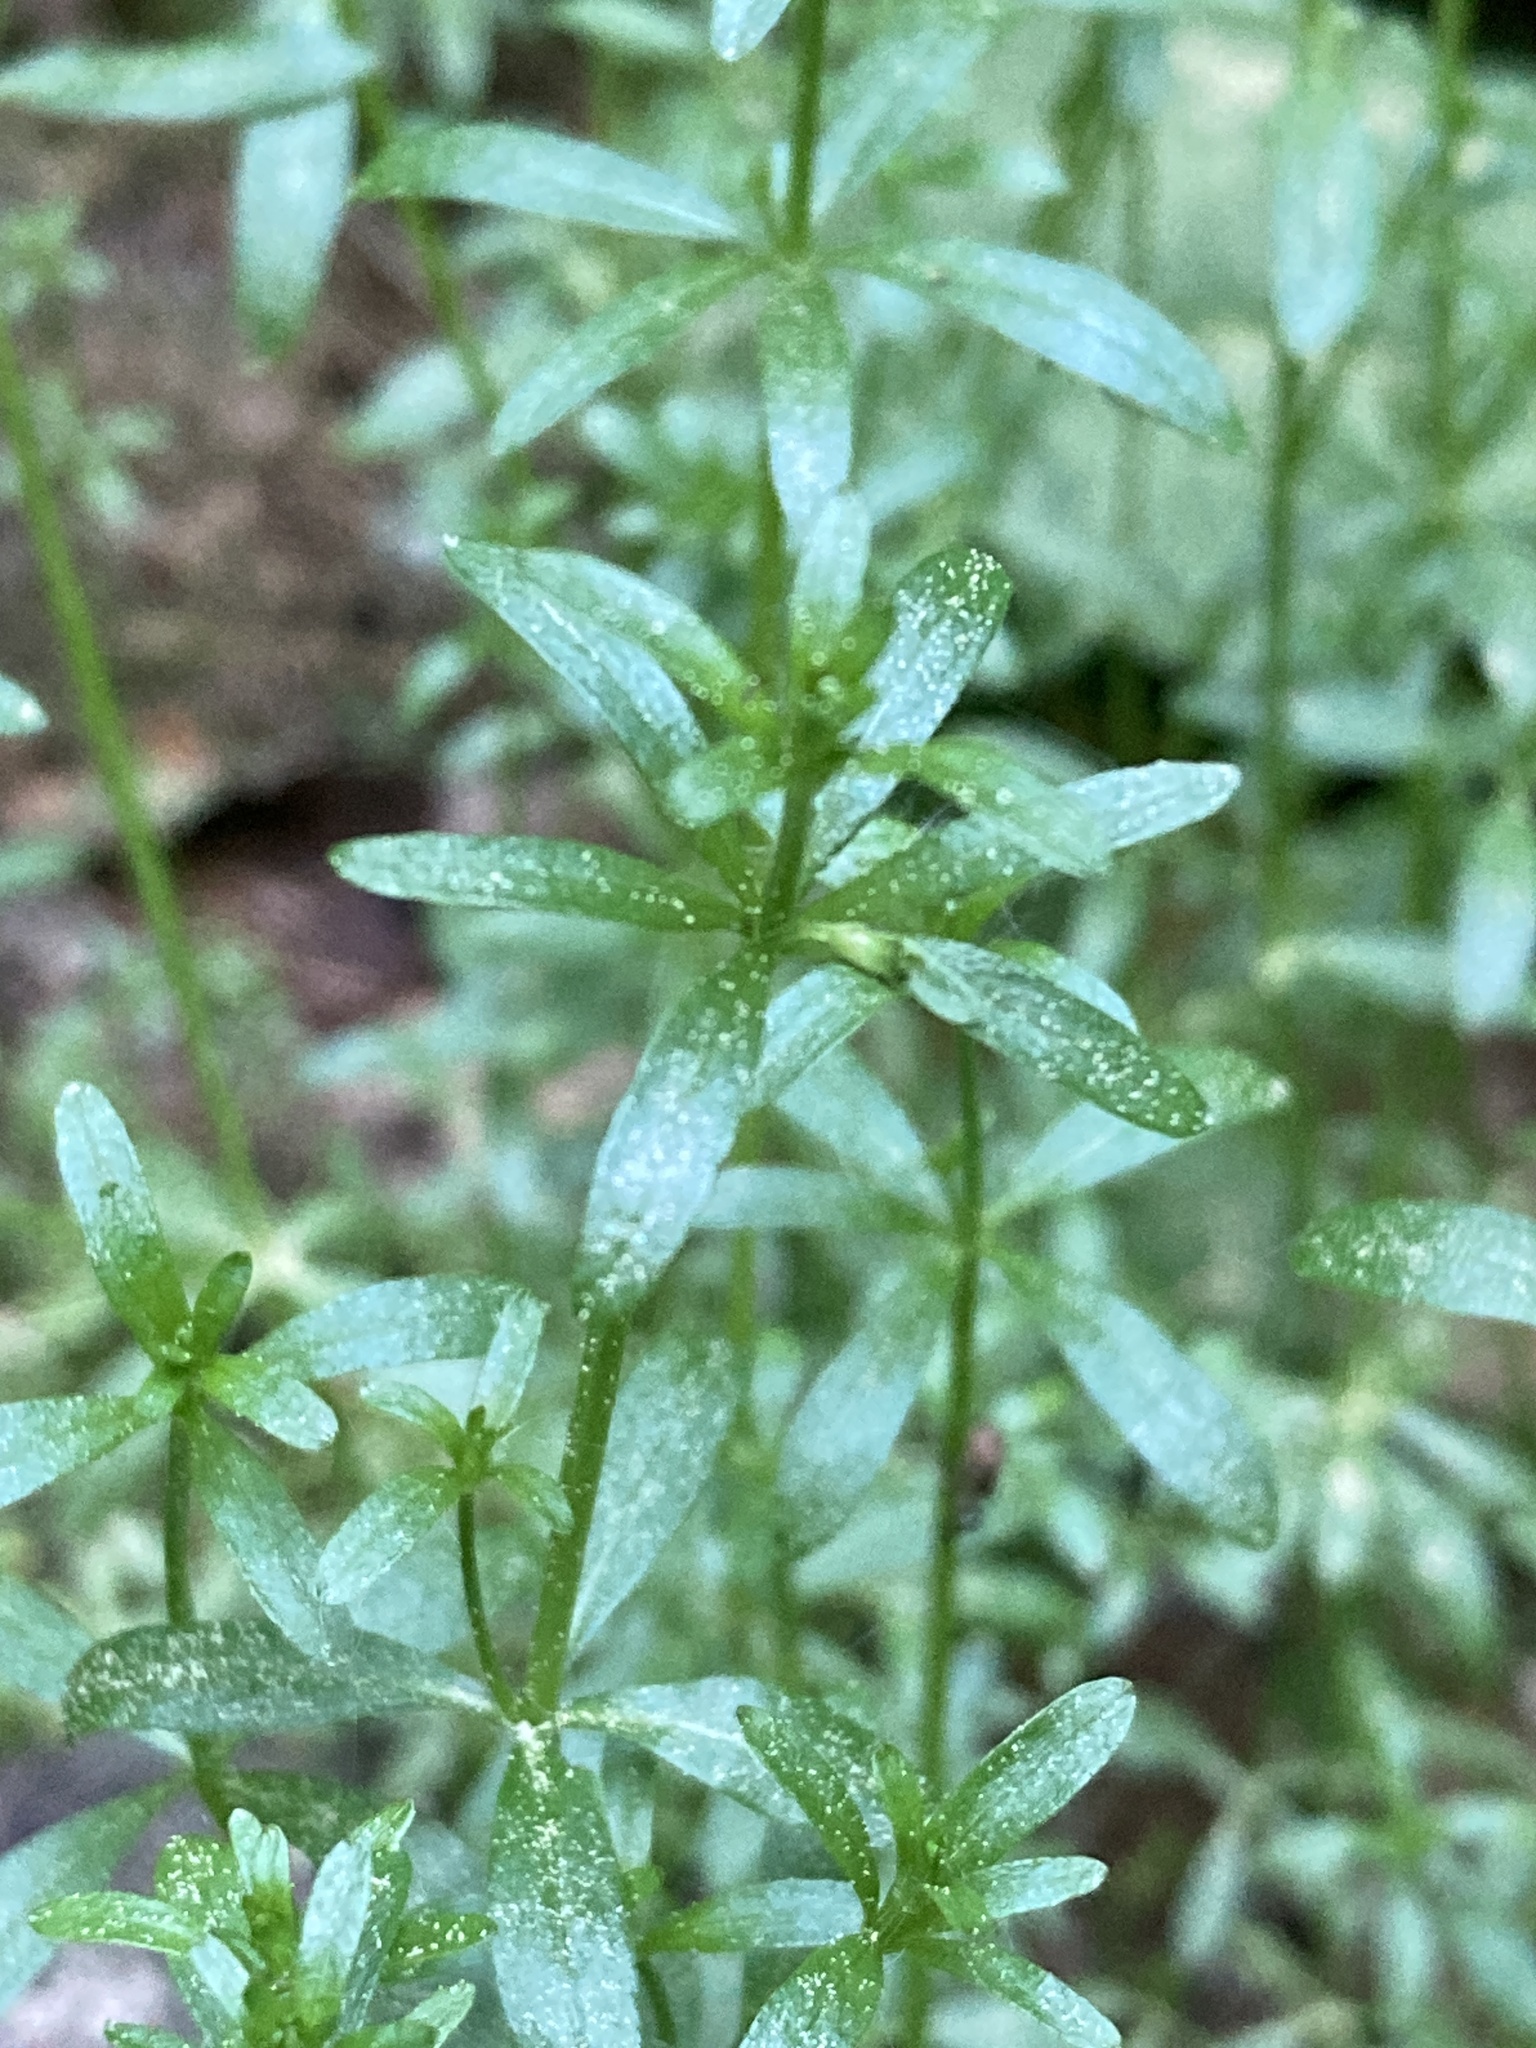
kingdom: Plantae
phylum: Tracheophyta
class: Magnoliopsida
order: Gentianales
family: Rubiaceae
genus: Galium
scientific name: Galium palustre
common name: Common marsh-bedstraw
